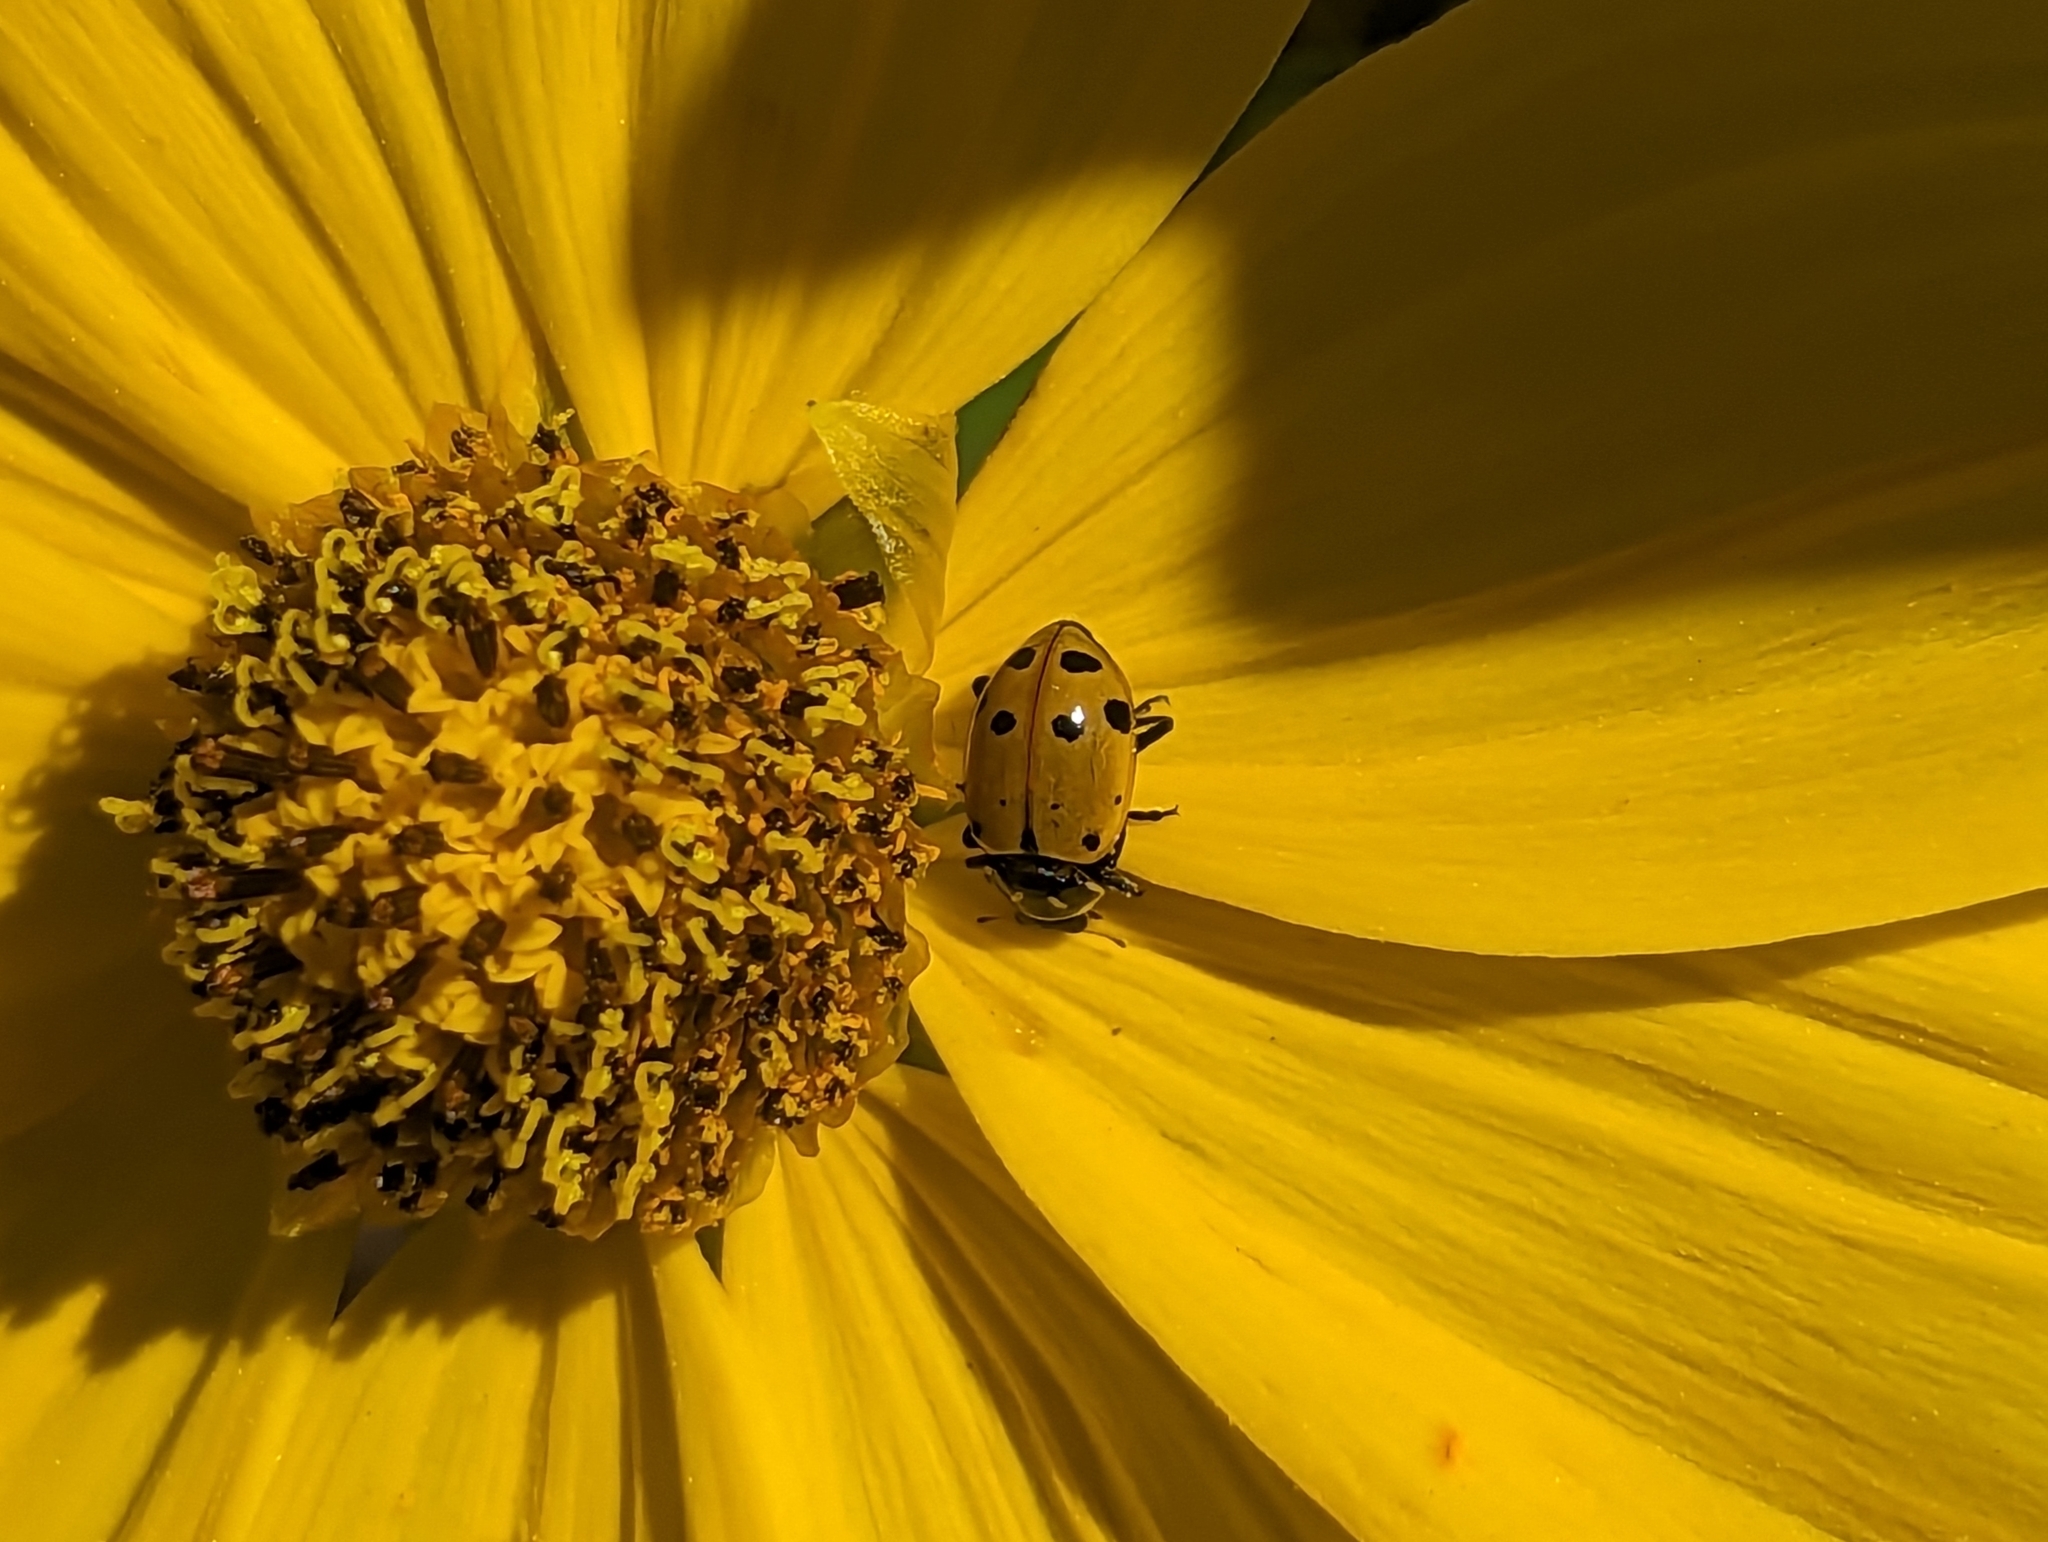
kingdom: Animalia
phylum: Arthropoda
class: Insecta
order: Coleoptera
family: Coccinellidae
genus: Hippodamia
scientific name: Hippodamia convergens
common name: Convergent lady beetle
